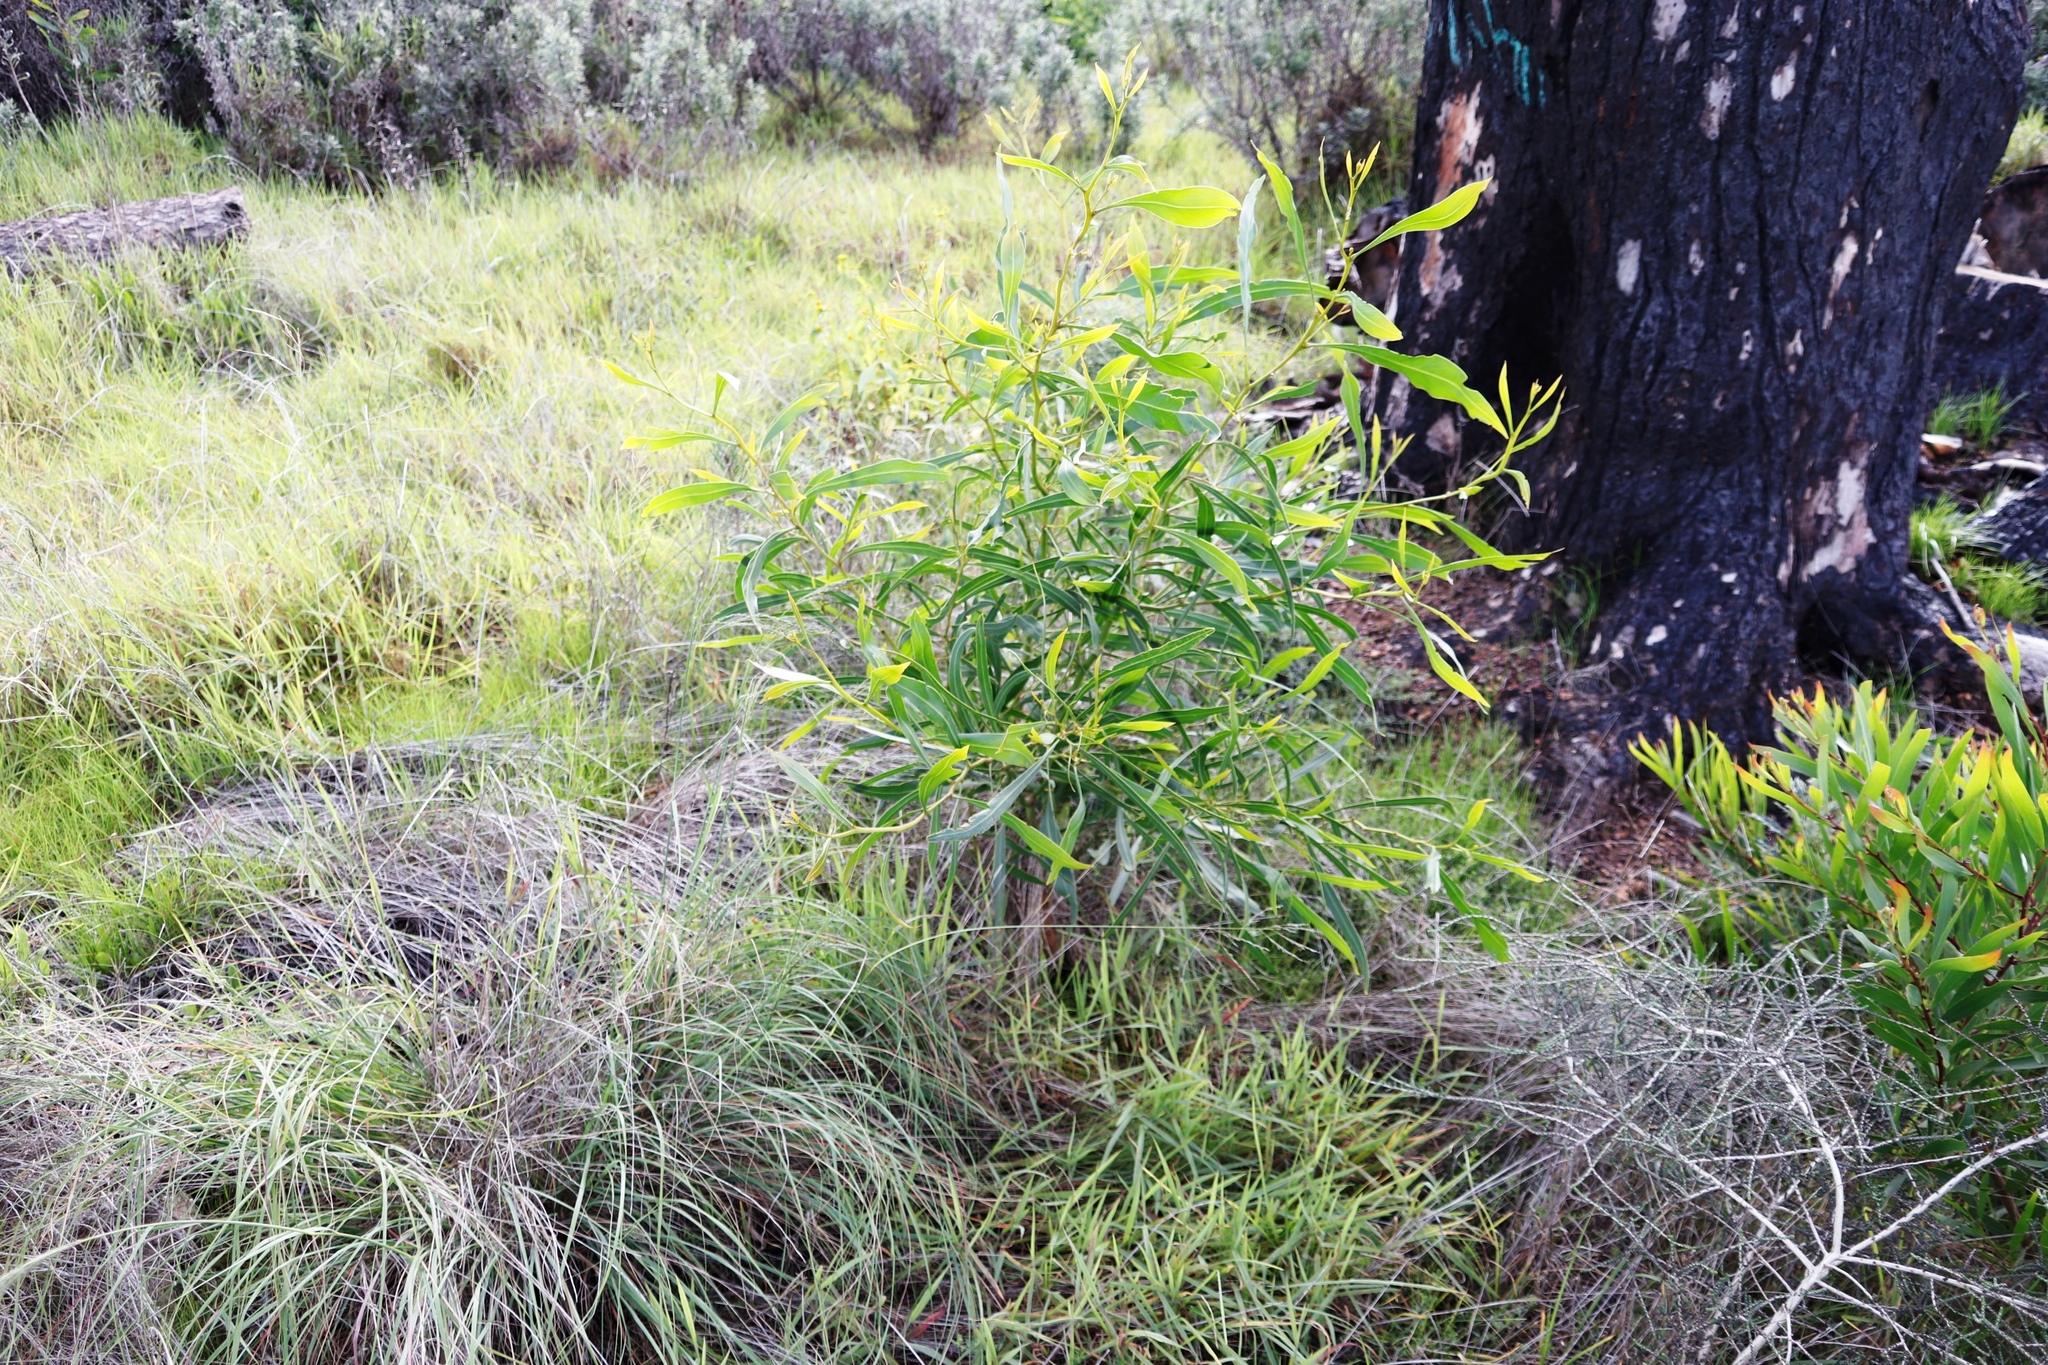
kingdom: Plantae
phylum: Tracheophyta
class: Magnoliopsida
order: Fabales
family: Fabaceae
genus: Acacia
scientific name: Acacia saligna
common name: Orange wattle
